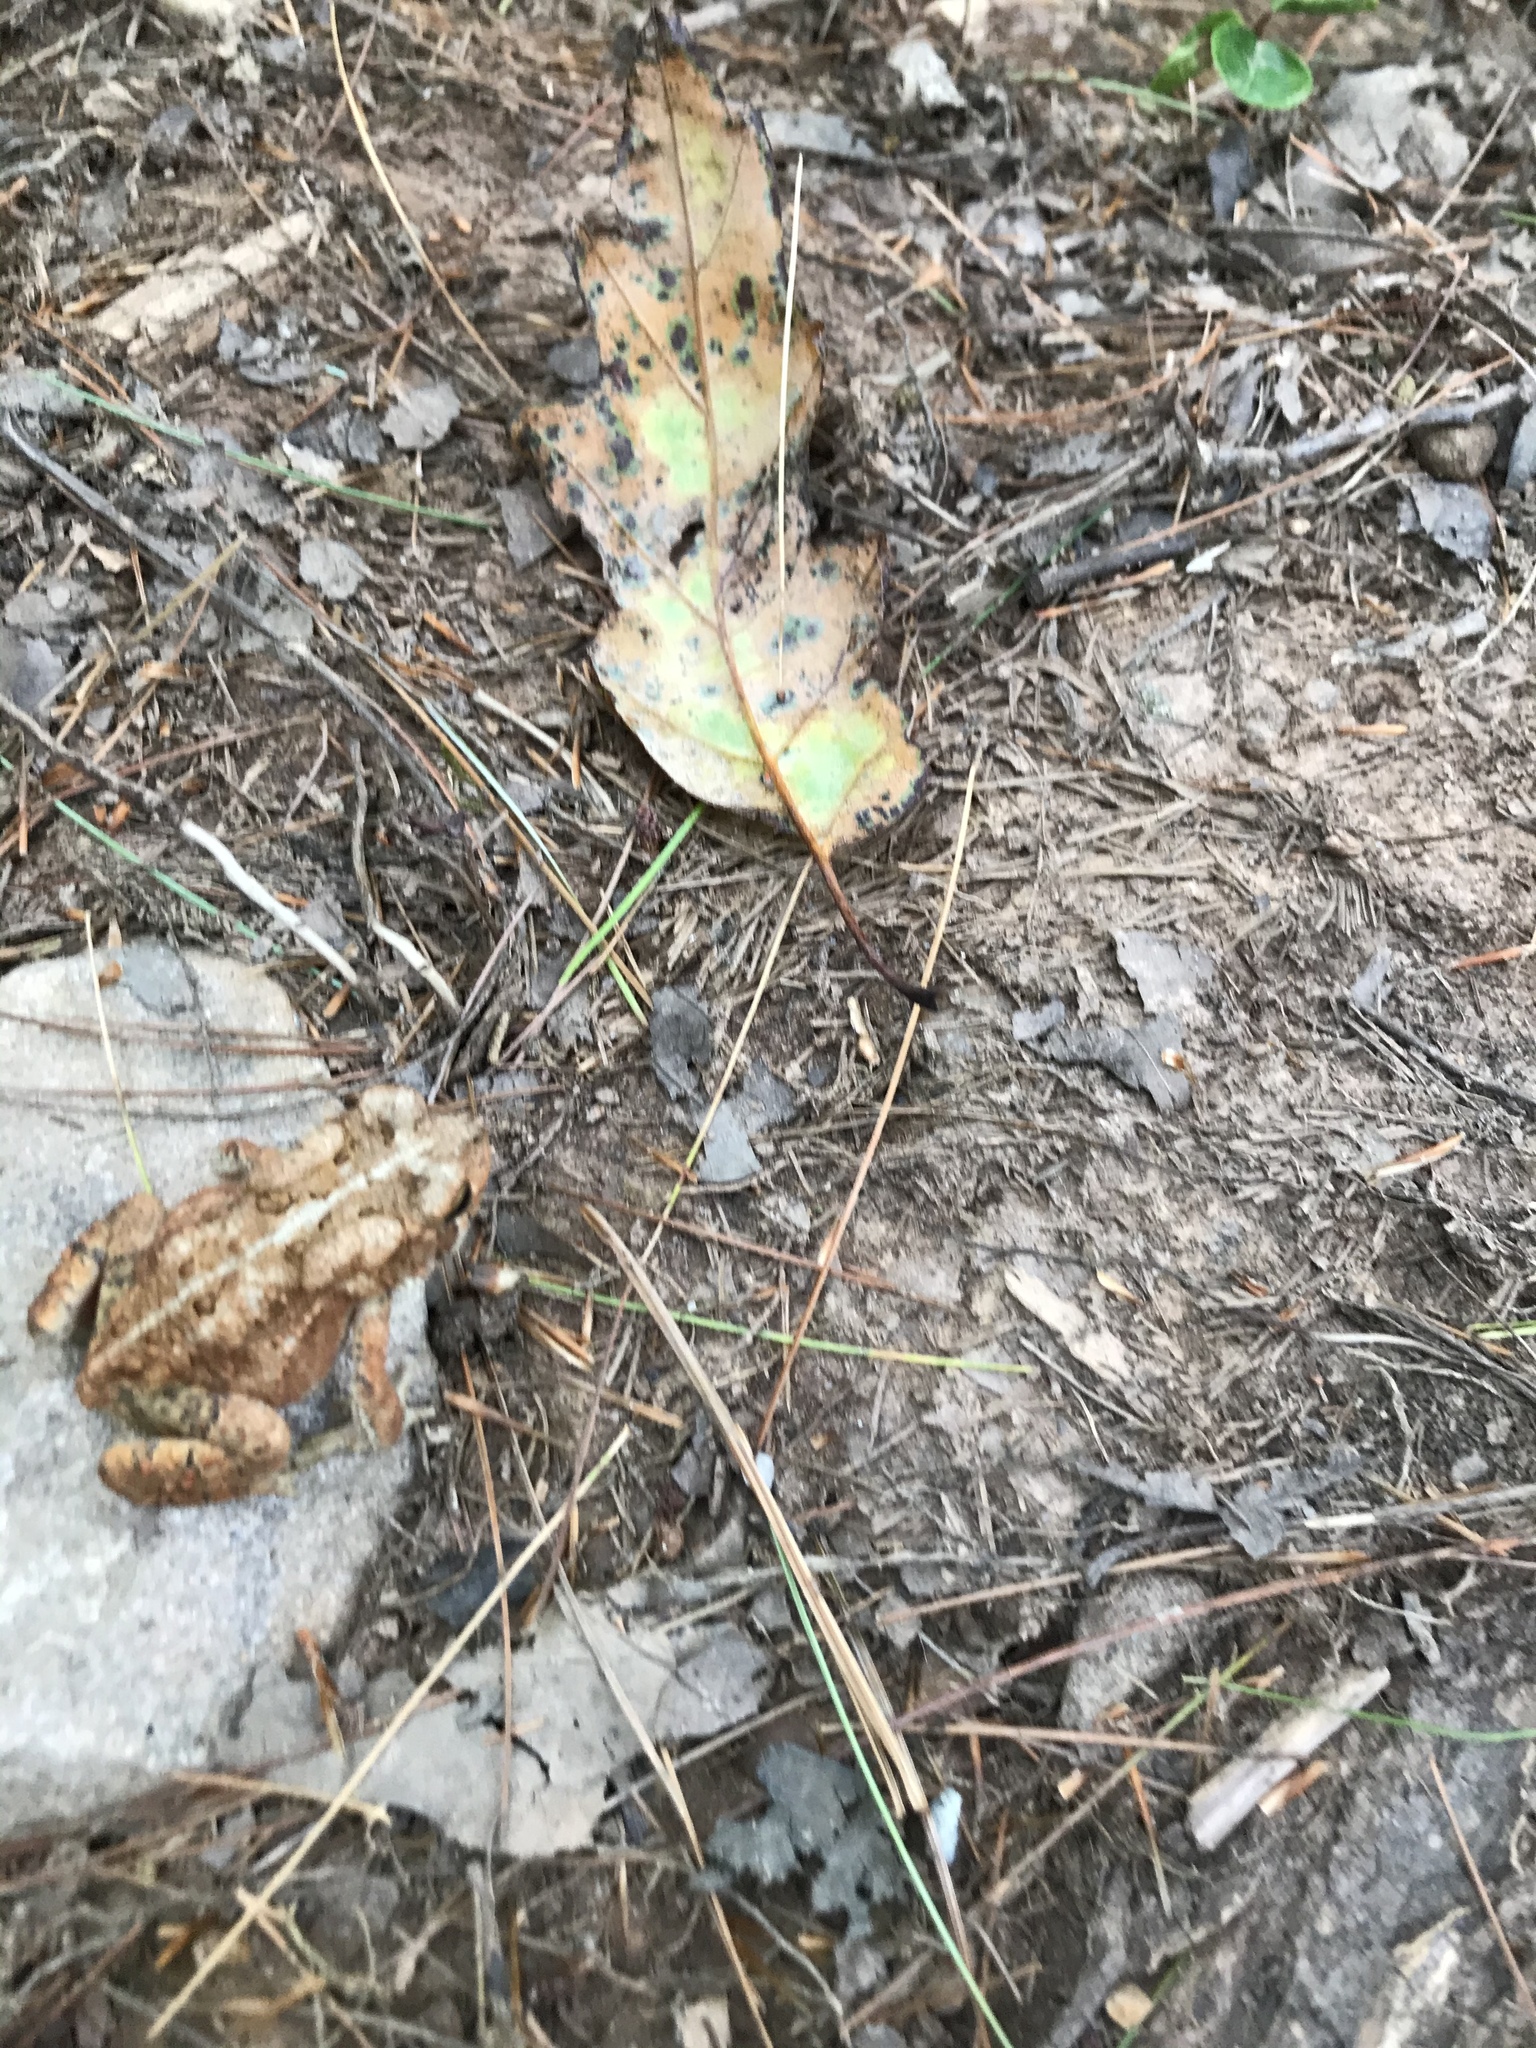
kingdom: Animalia
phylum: Chordata
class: Amphibia
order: Anura
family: Bufonidae
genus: Anaxyrus
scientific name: Anaxyrus americanus
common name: American toad
